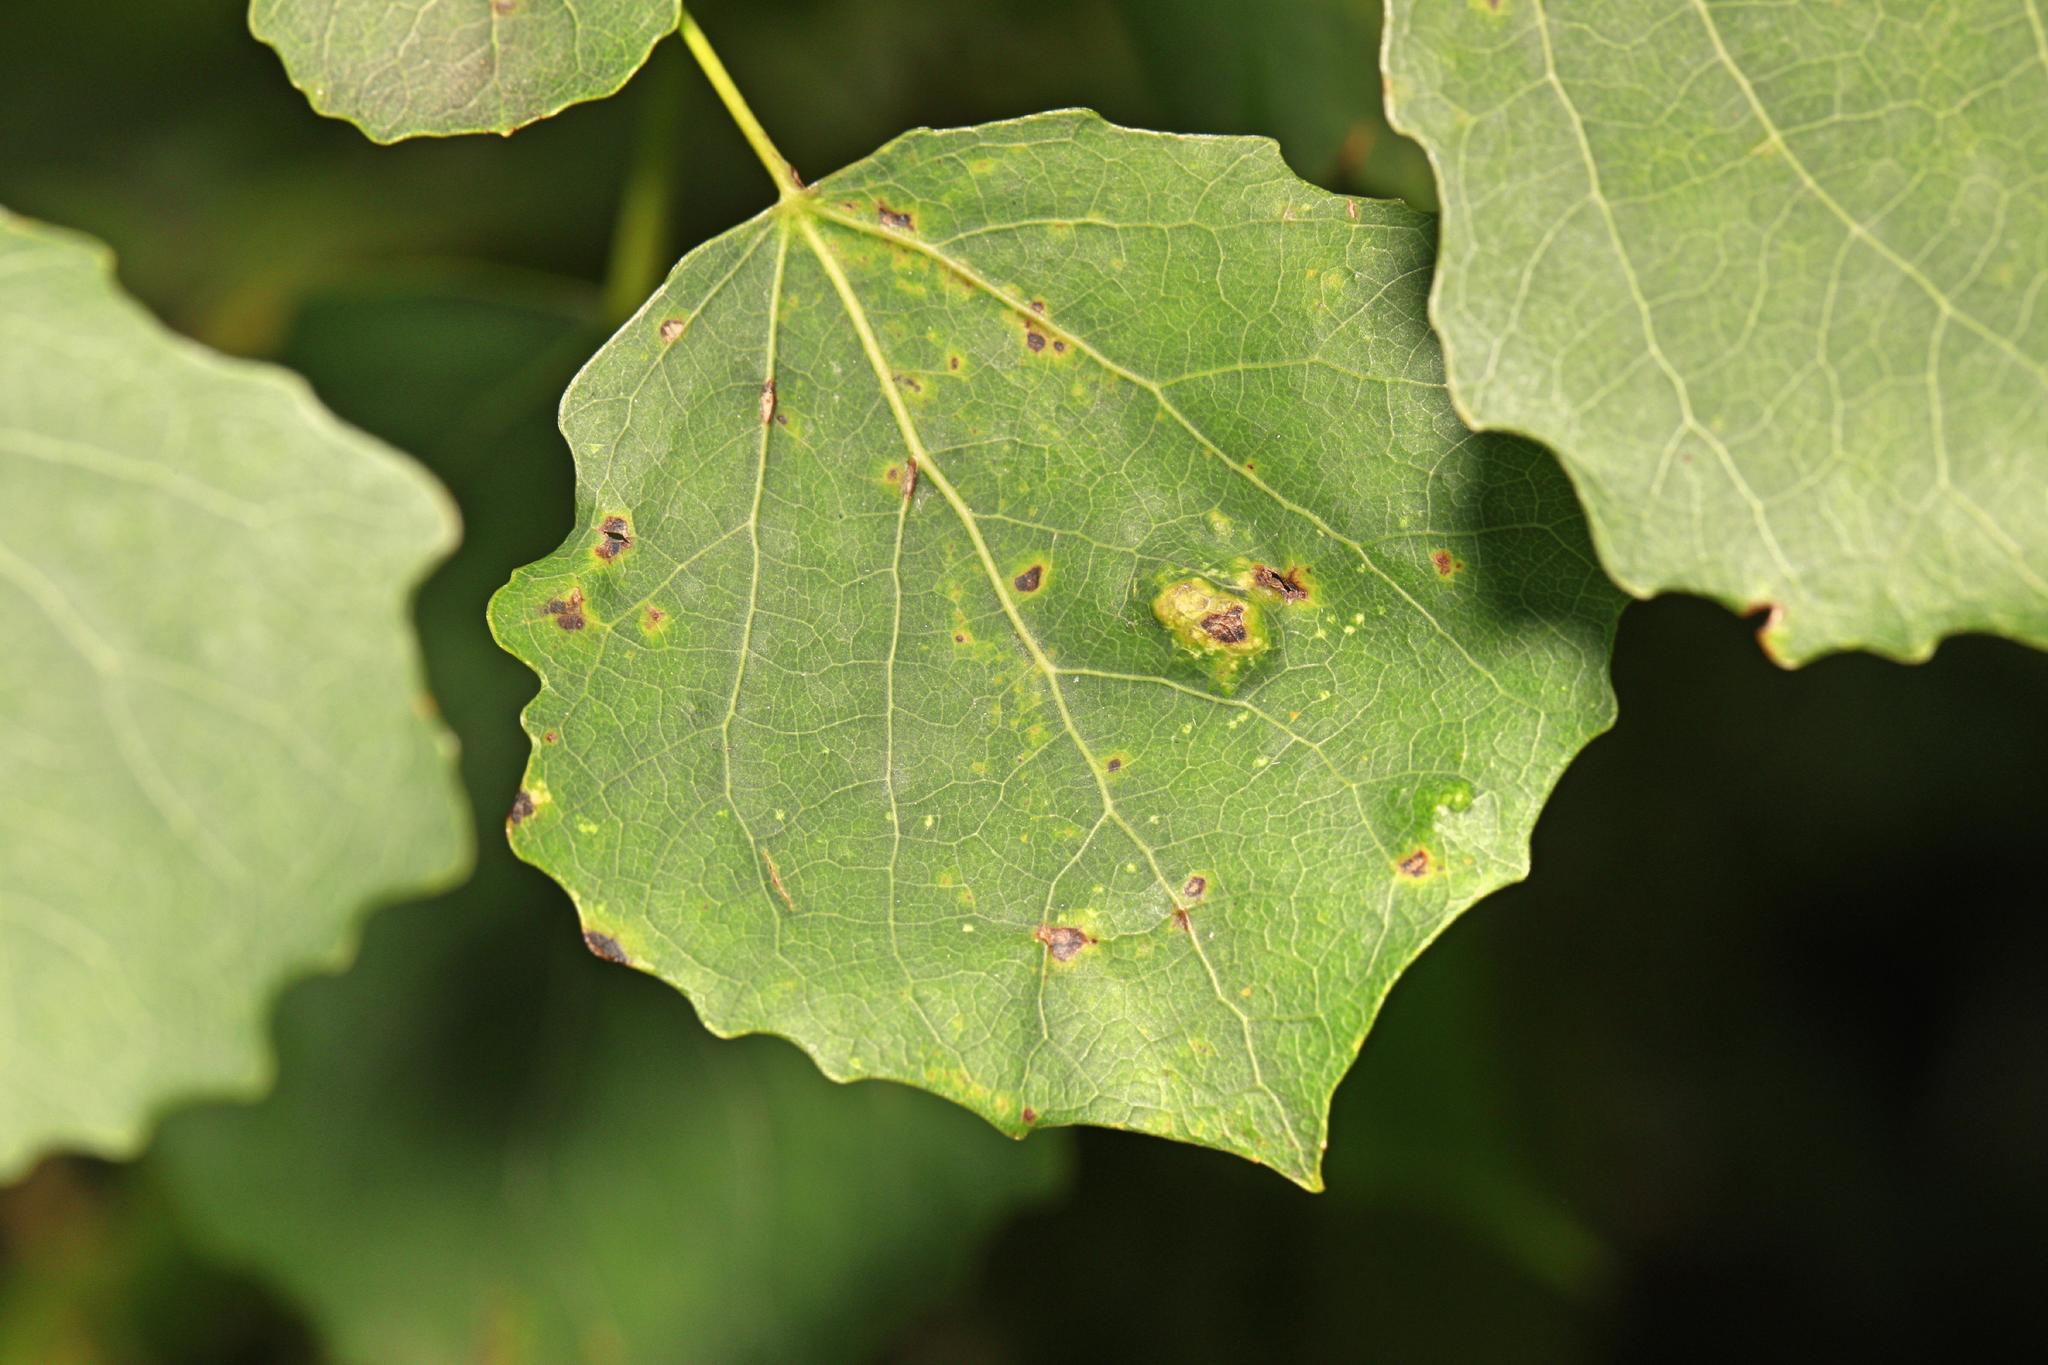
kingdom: Animalia
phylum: Arthropoda
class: Arachnida
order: Trombidiformes
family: Eriophyidae
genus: Phyllocoptes
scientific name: Phyllocoptes populi
